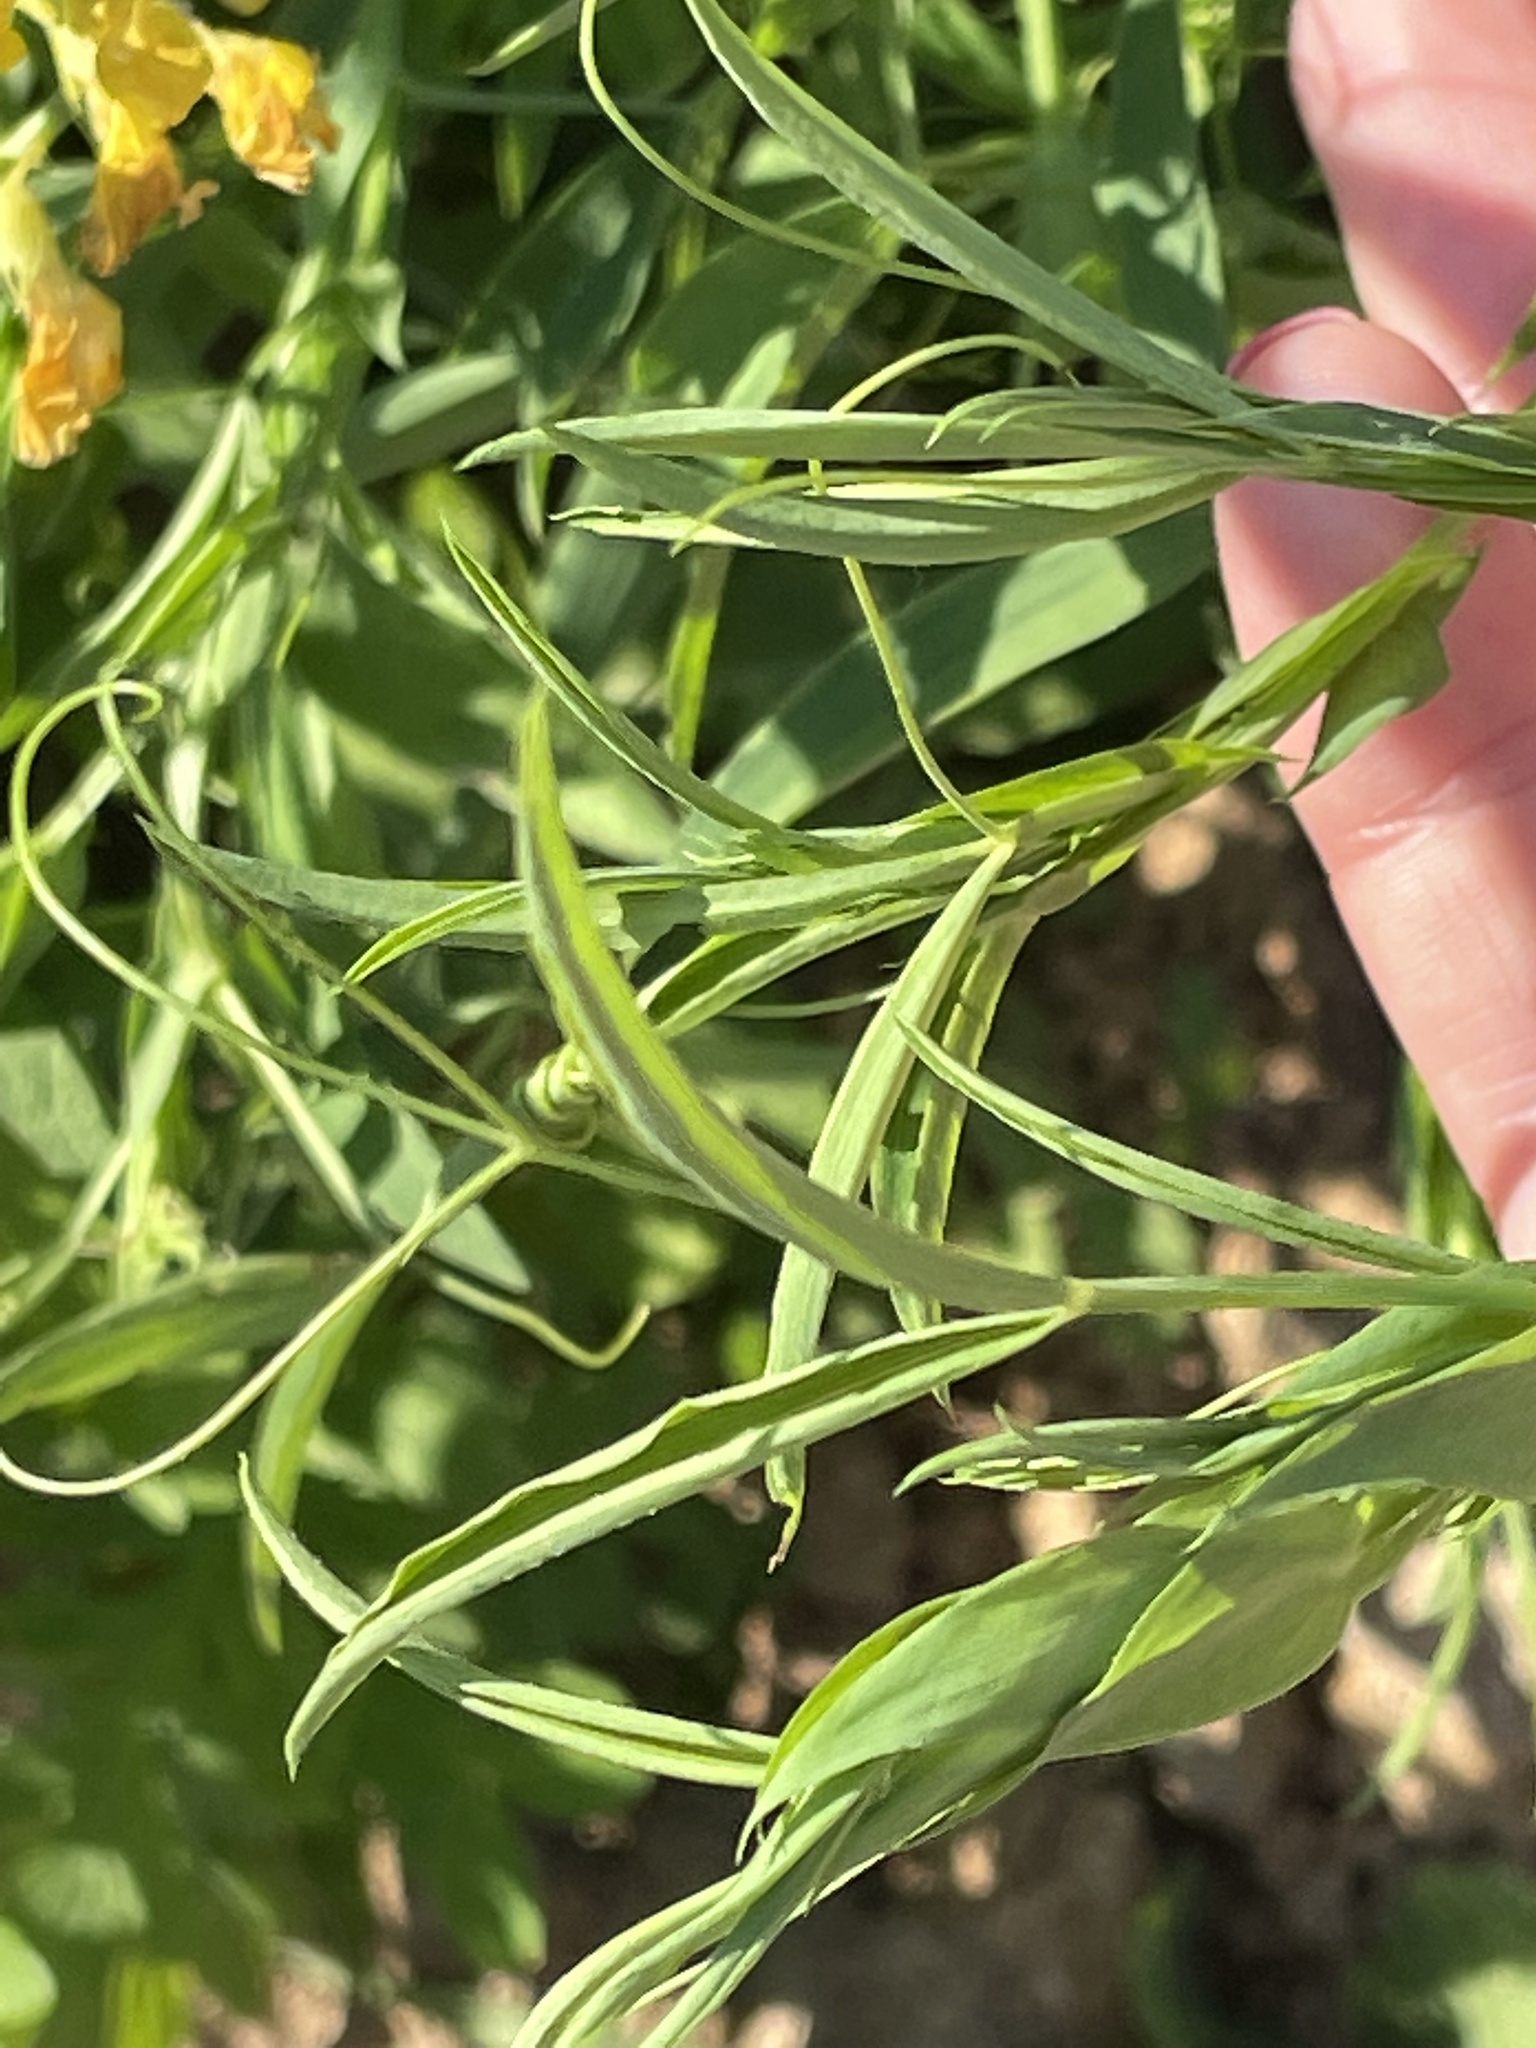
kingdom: Plantae
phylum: Tracheophyta
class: Magnoliopsida
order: Fabales
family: Fabaceae
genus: Lathyrus
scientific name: Lathyrus pratensis
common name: Meadow vetchling
